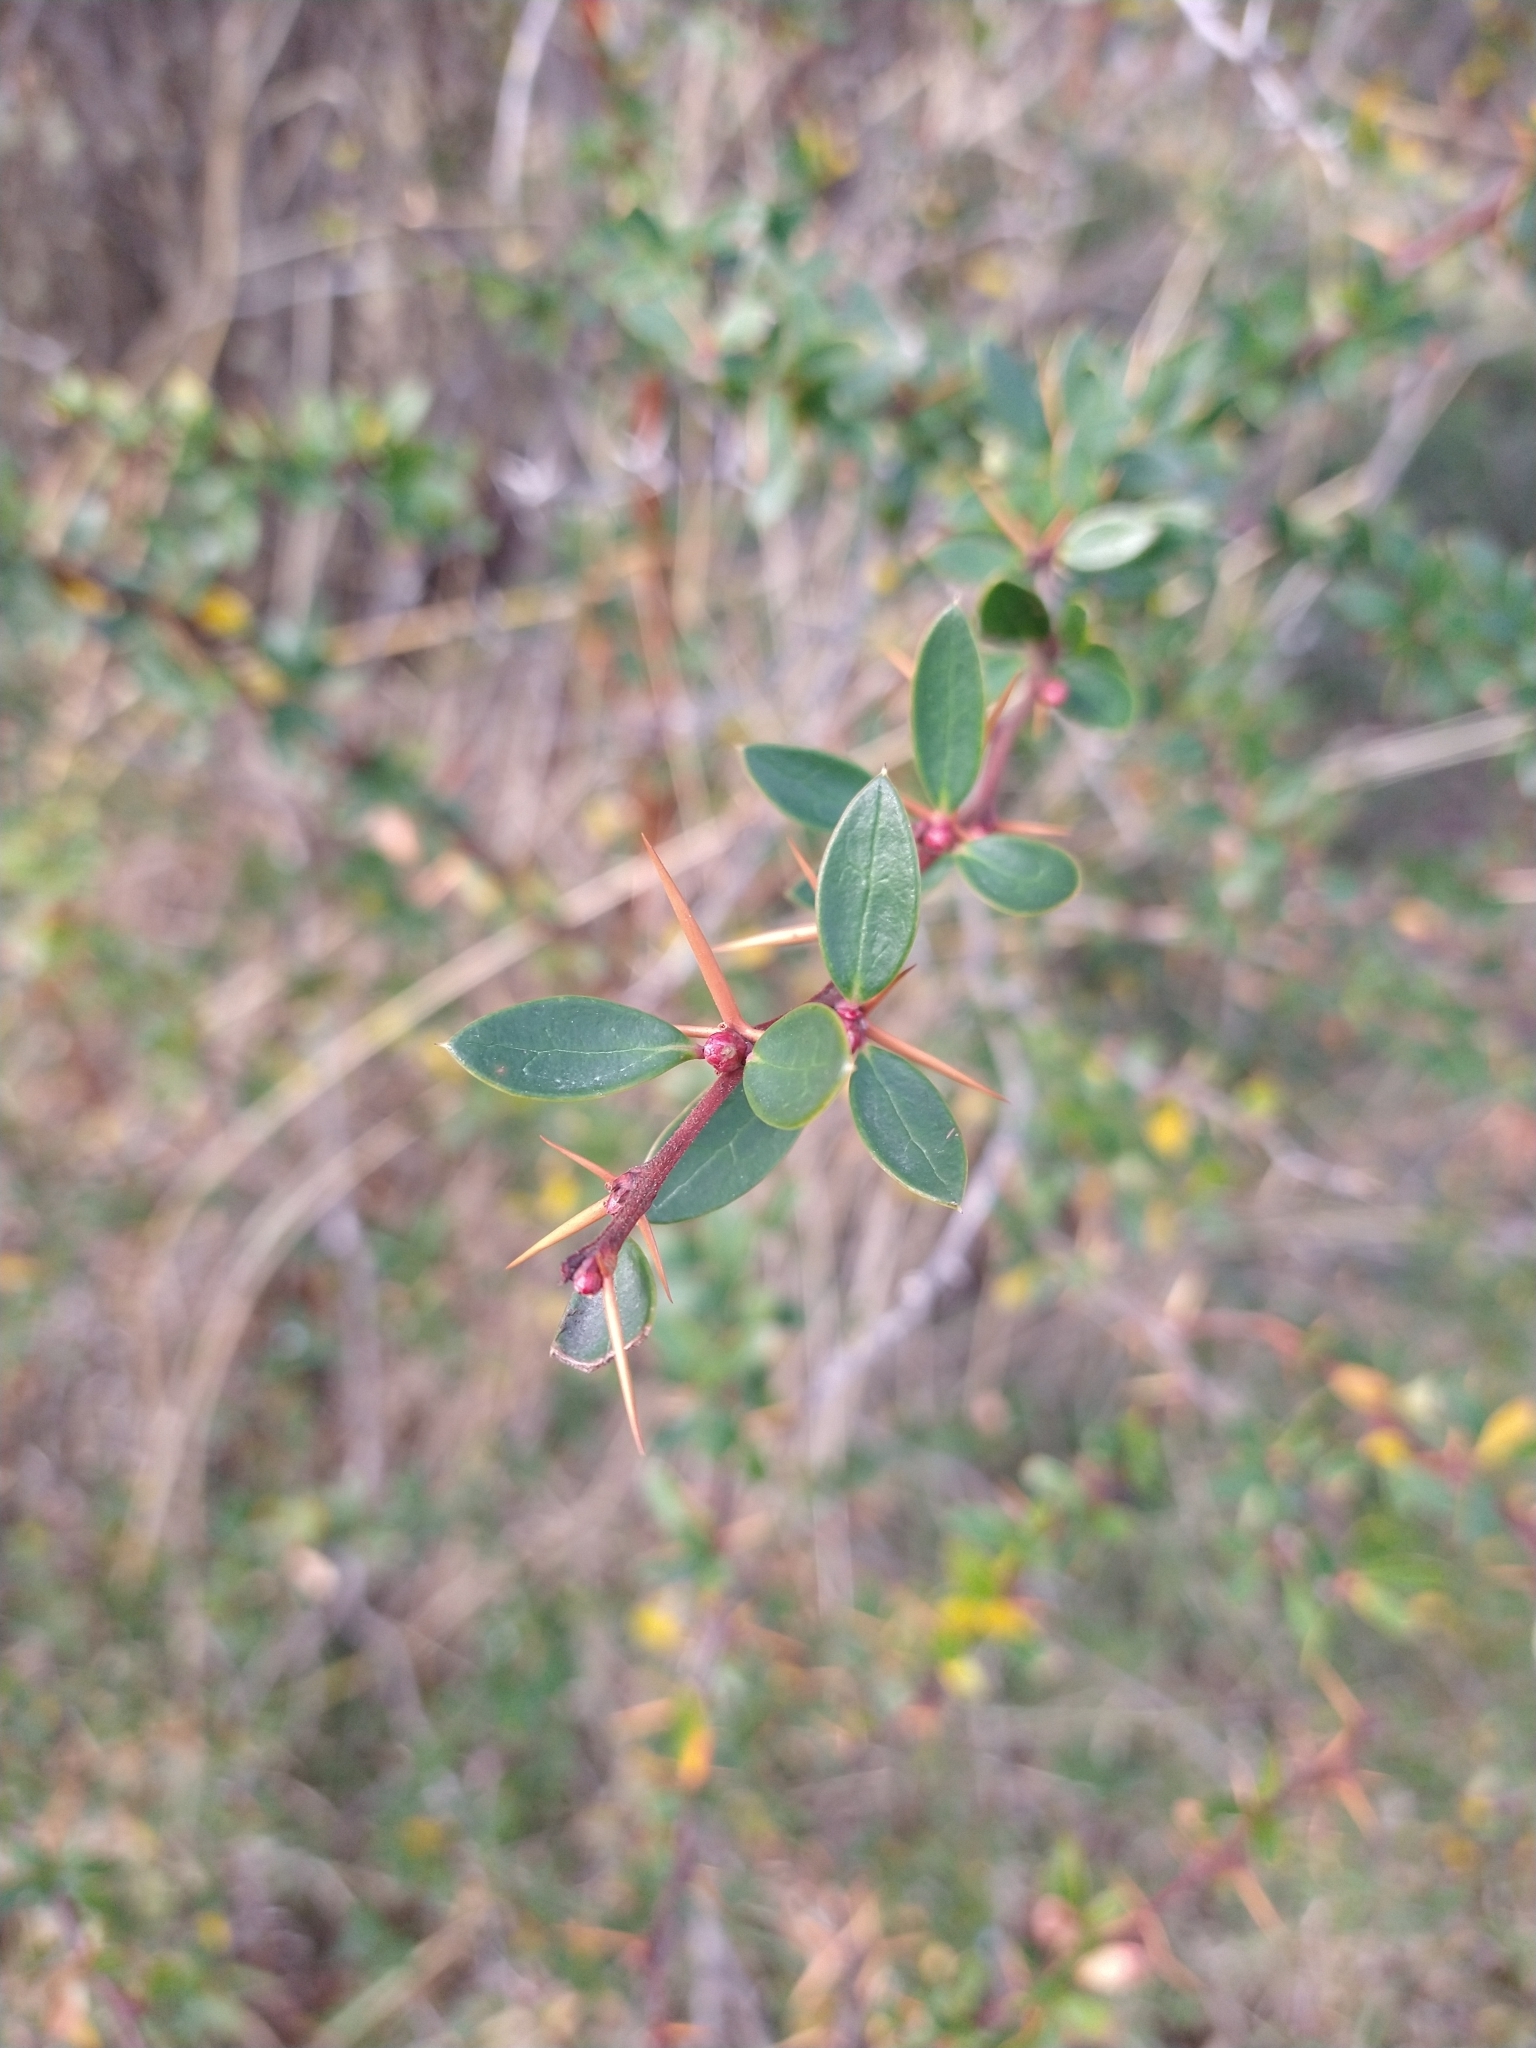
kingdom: Plantae
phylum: Tracheophyta
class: Magnoliopsida
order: Ranunculales
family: Berberidaceae
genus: Berberis
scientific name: Berberis microphylla
